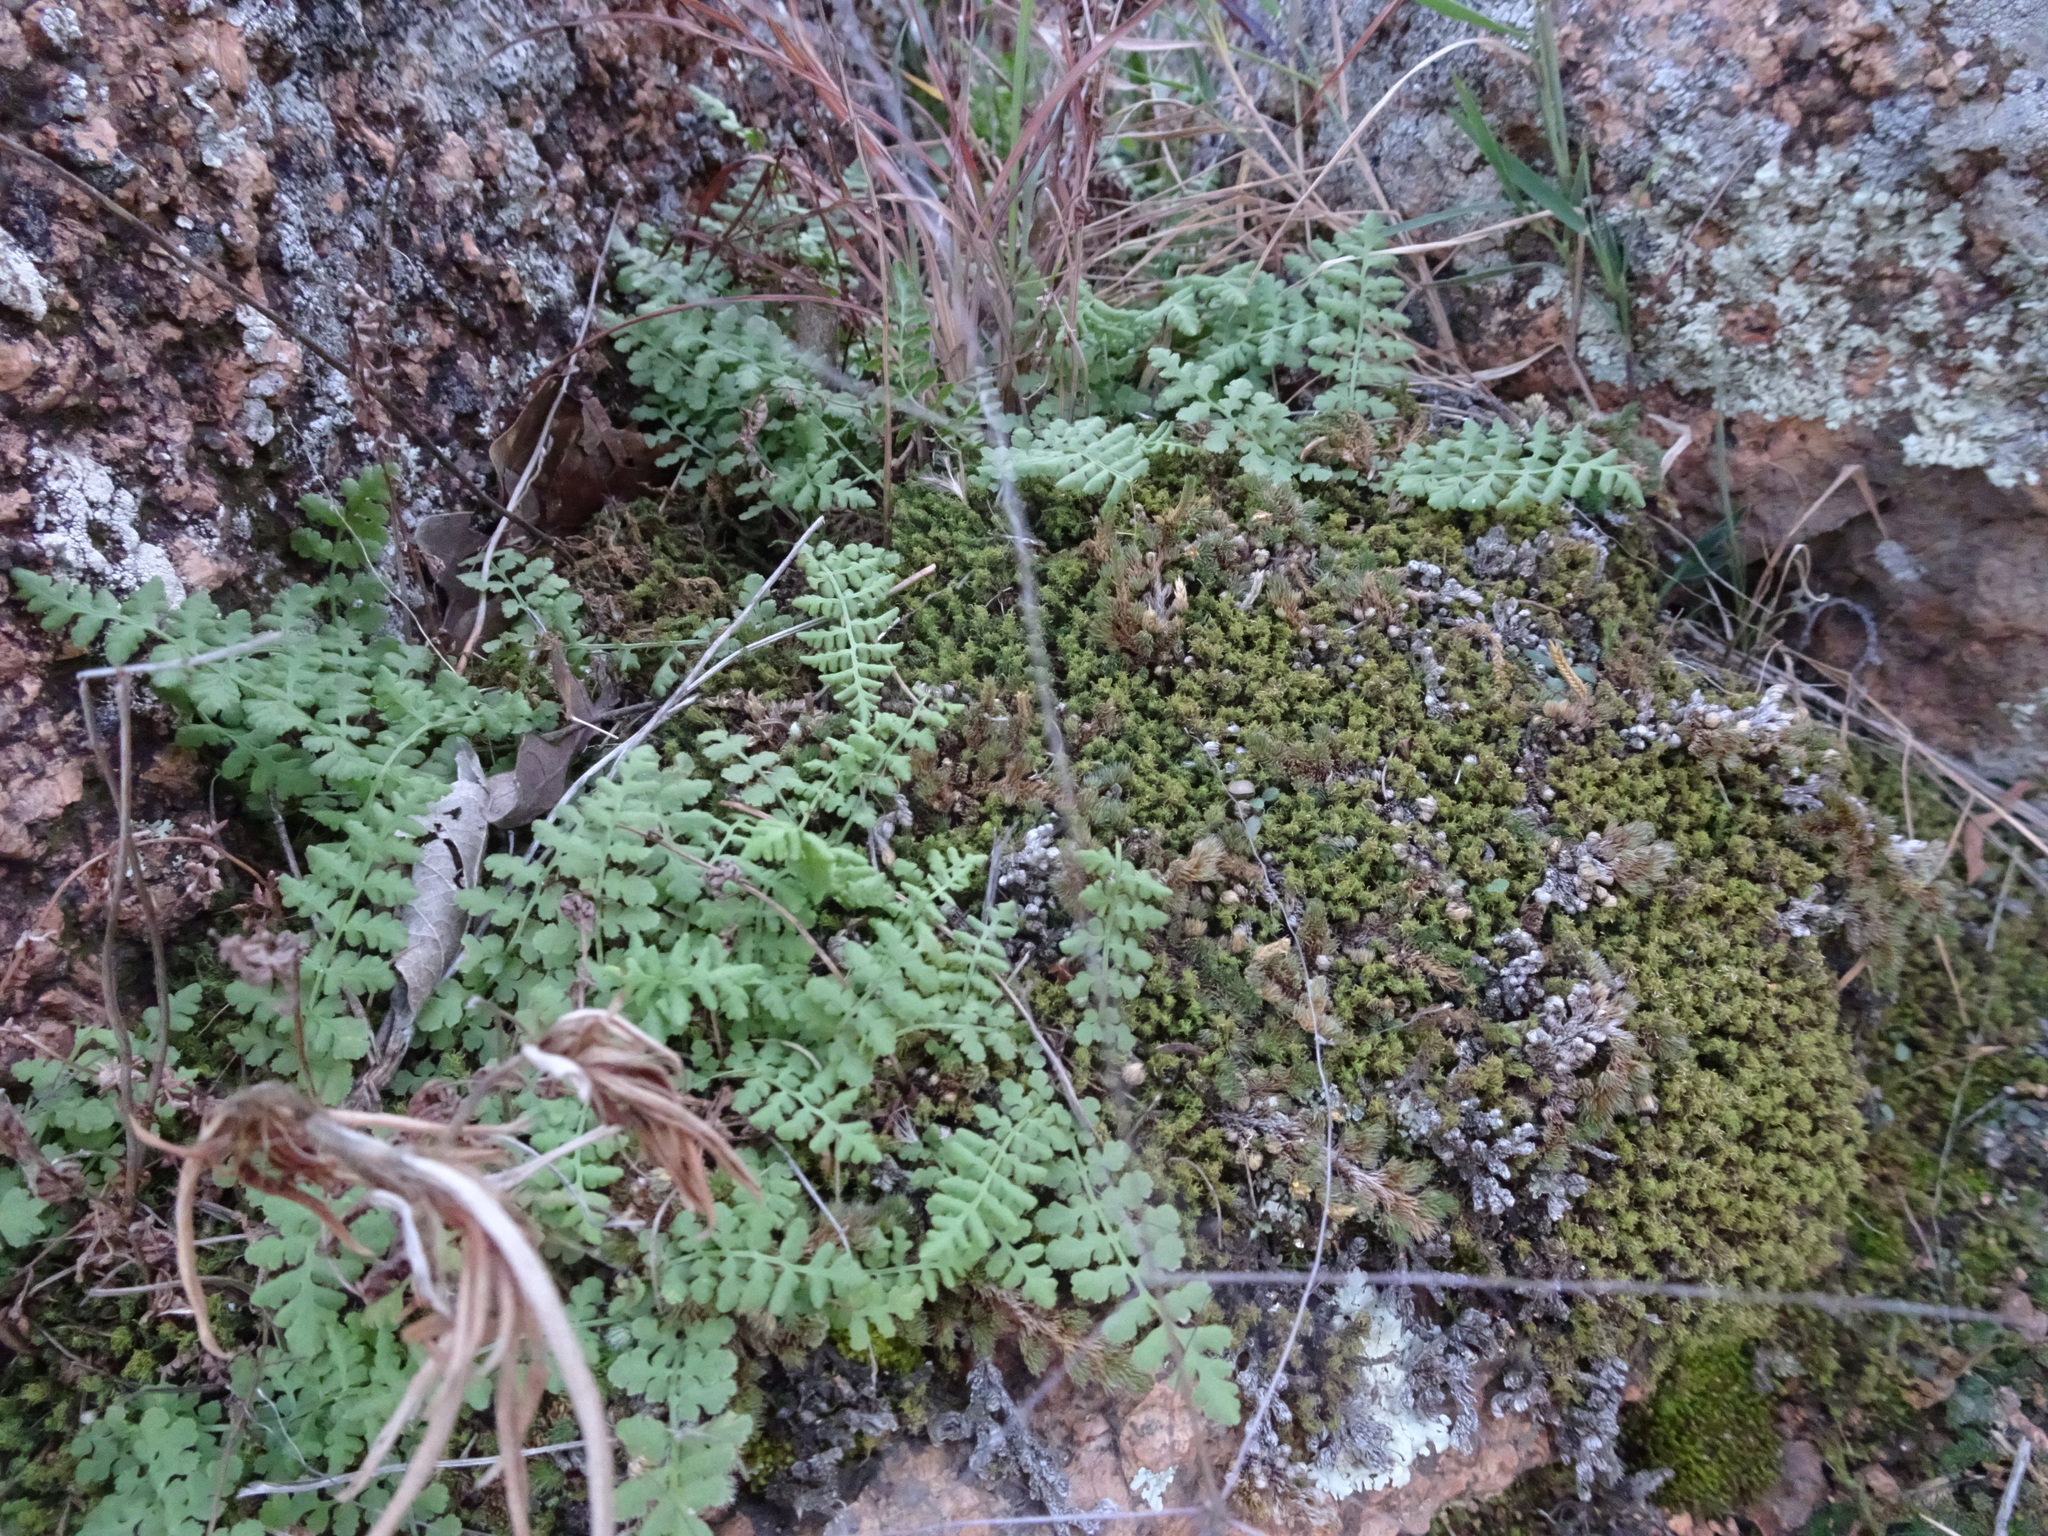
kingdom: Plantae
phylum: Tracheophyta
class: Polypodiopsida
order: Polypodiales
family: Woodsiaceae
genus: Physematium
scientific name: Physematium obtusum
